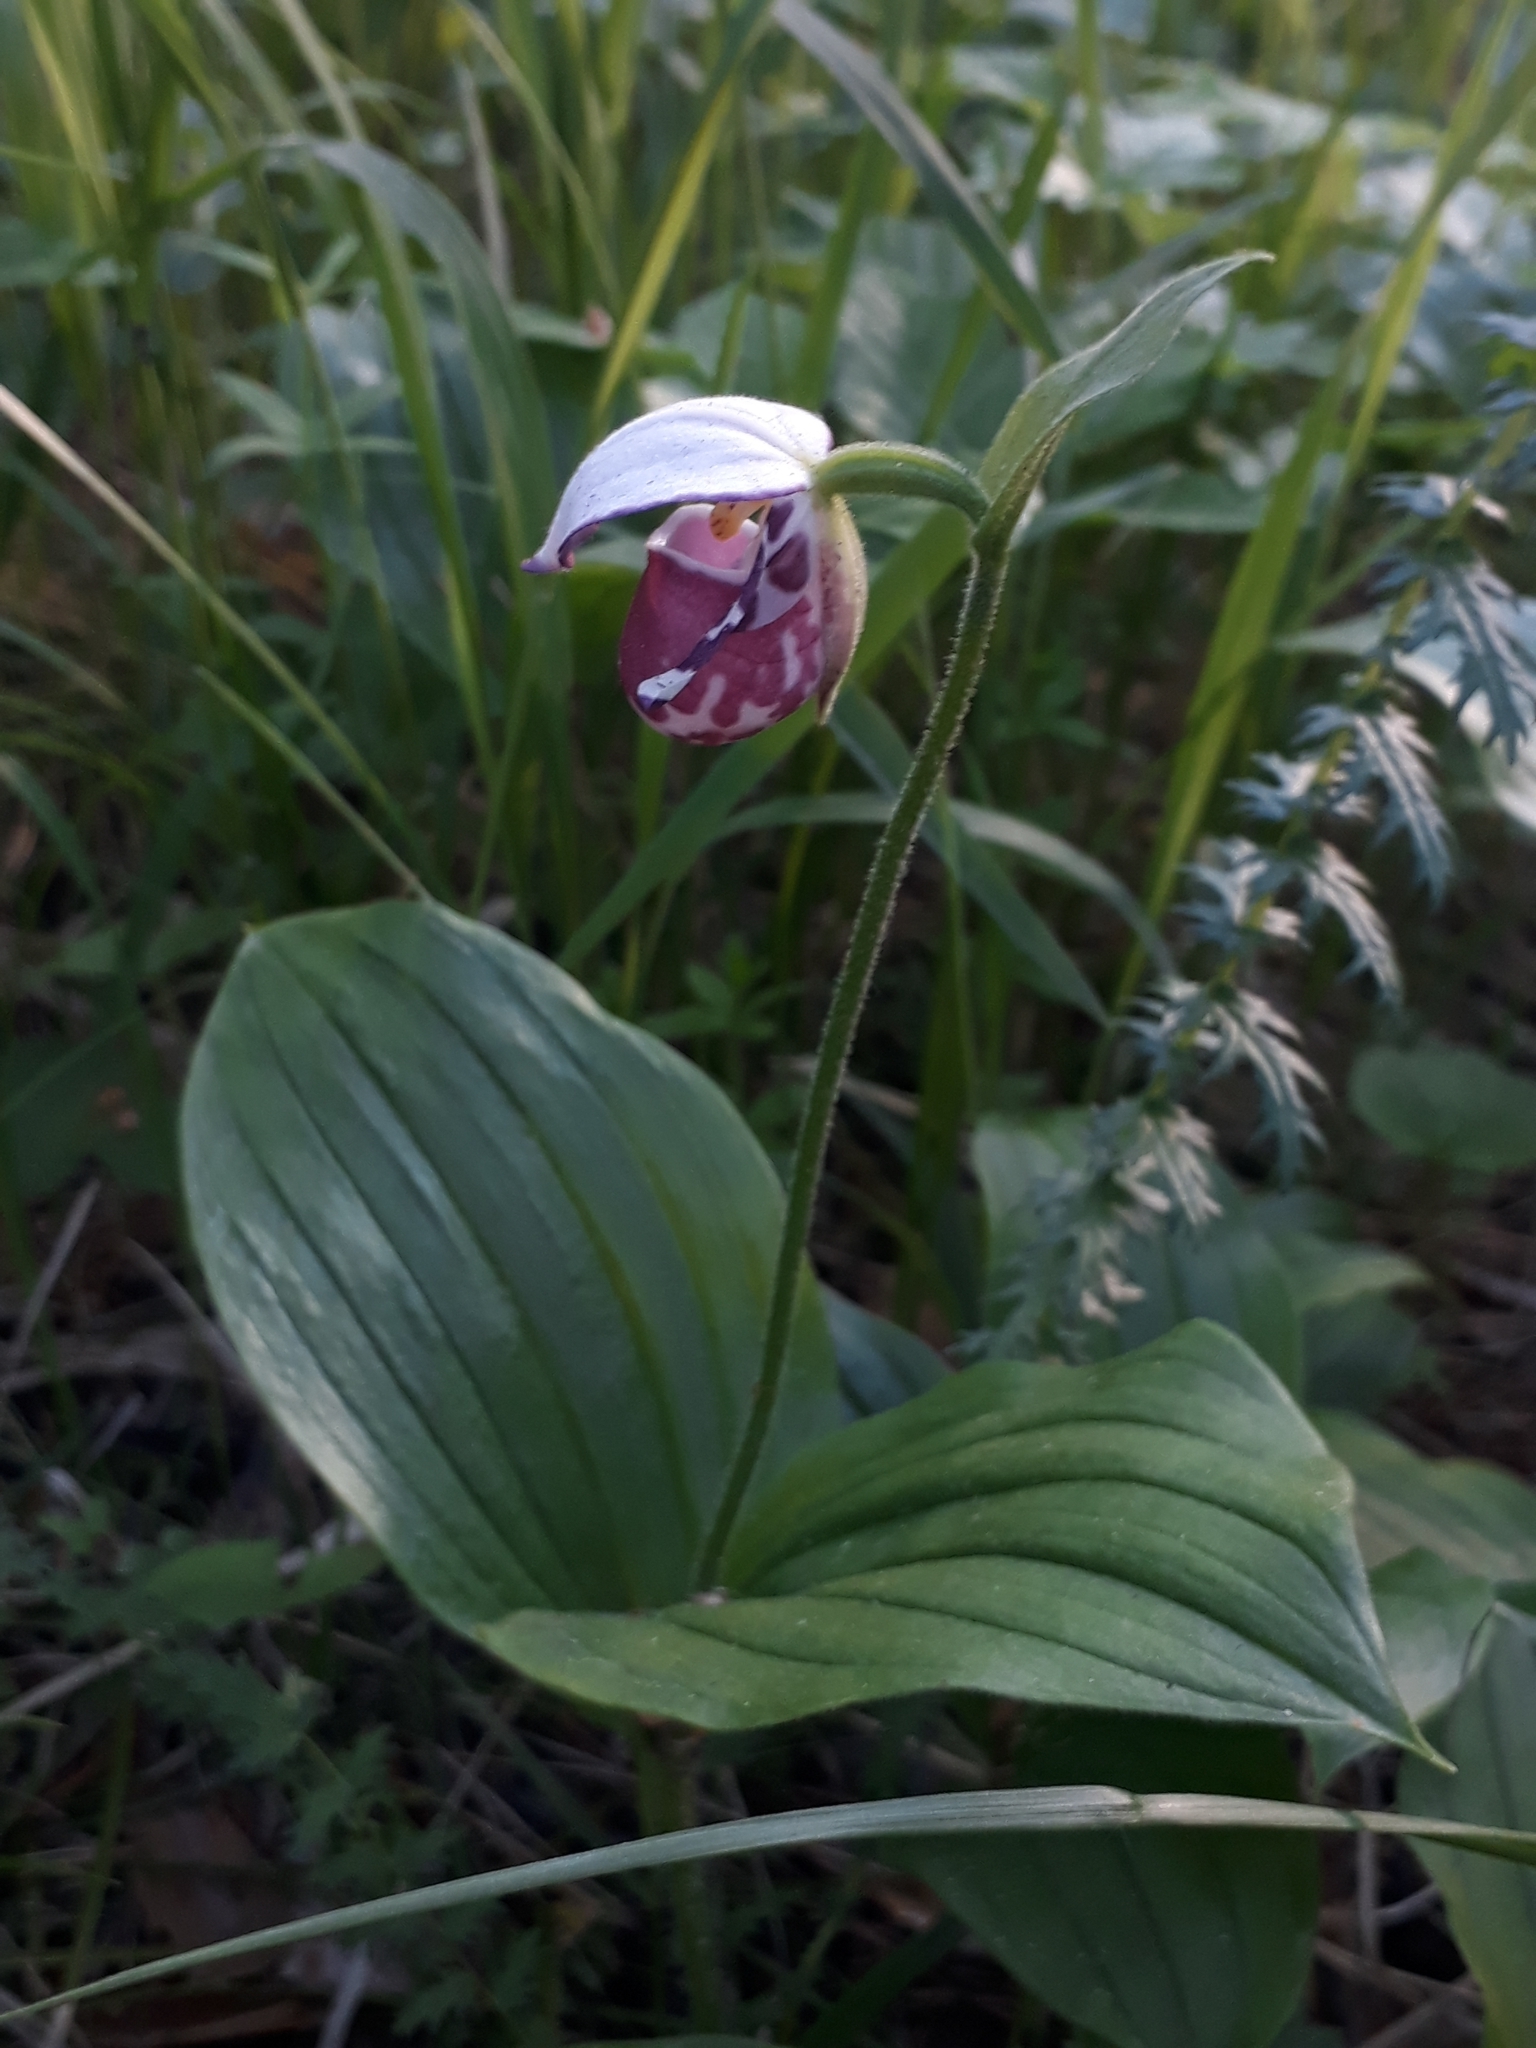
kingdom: Plantae
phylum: Tracheophyta
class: Liliopsida
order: Asparagales
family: Orchidaceae
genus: Cypripedium
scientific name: Cypripedium guttatum
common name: Pink lady slipper
